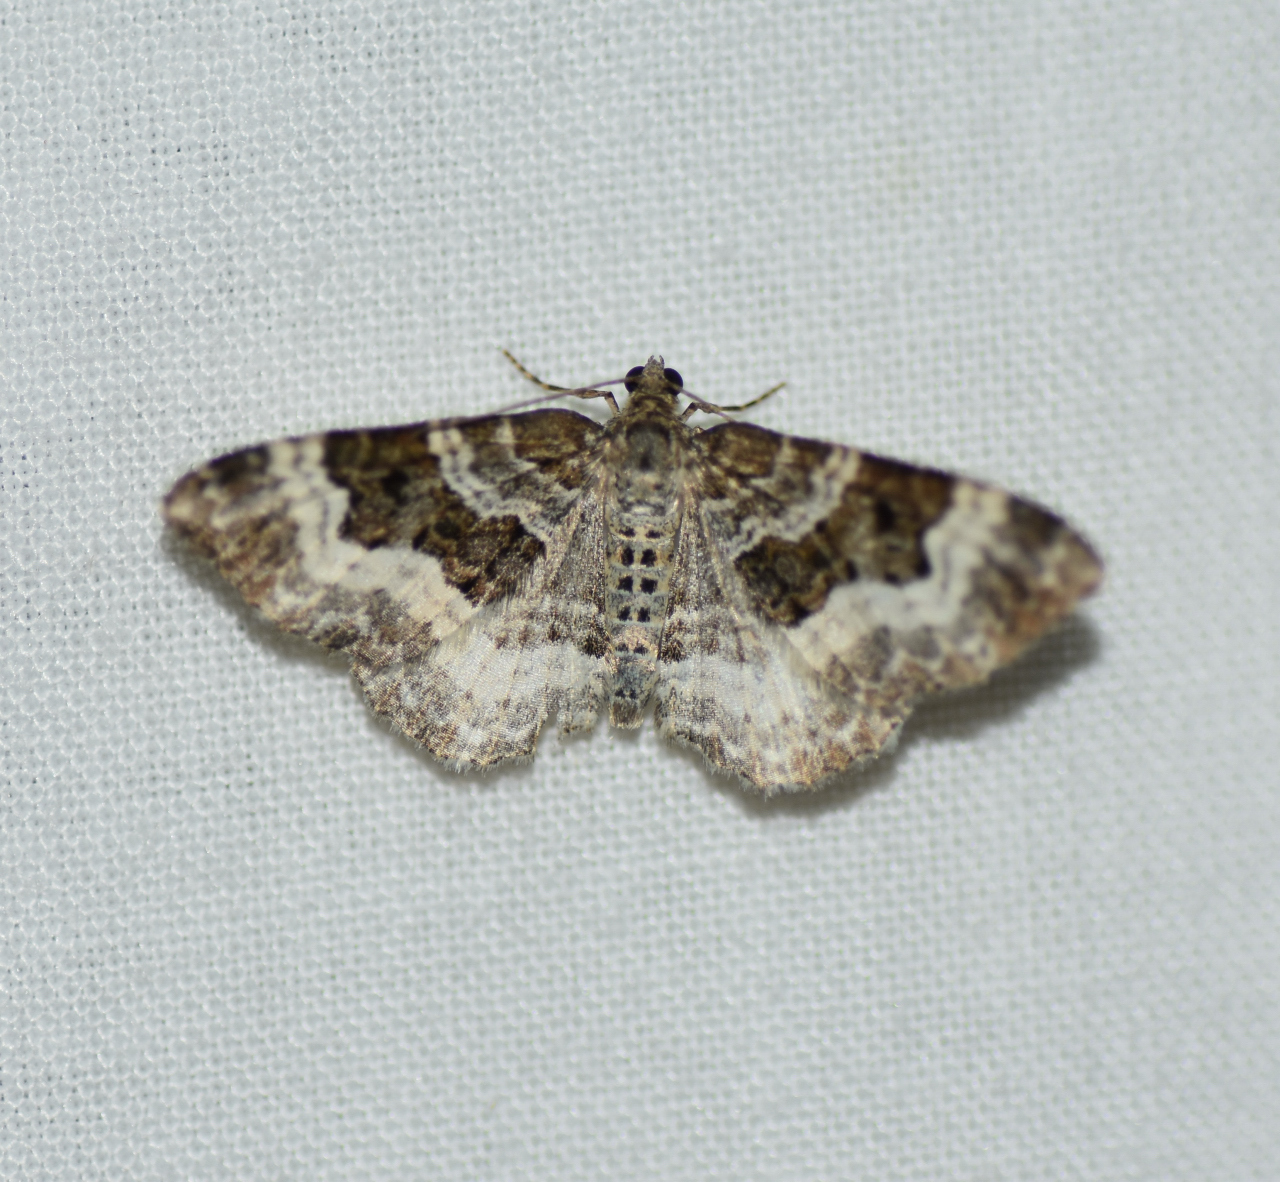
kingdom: Animalia
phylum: Arthropoda
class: Insecta
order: Lepidoptera
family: Geometridae
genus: Epirrhoe
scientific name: Epirrhoe alternata
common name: Common carpet
